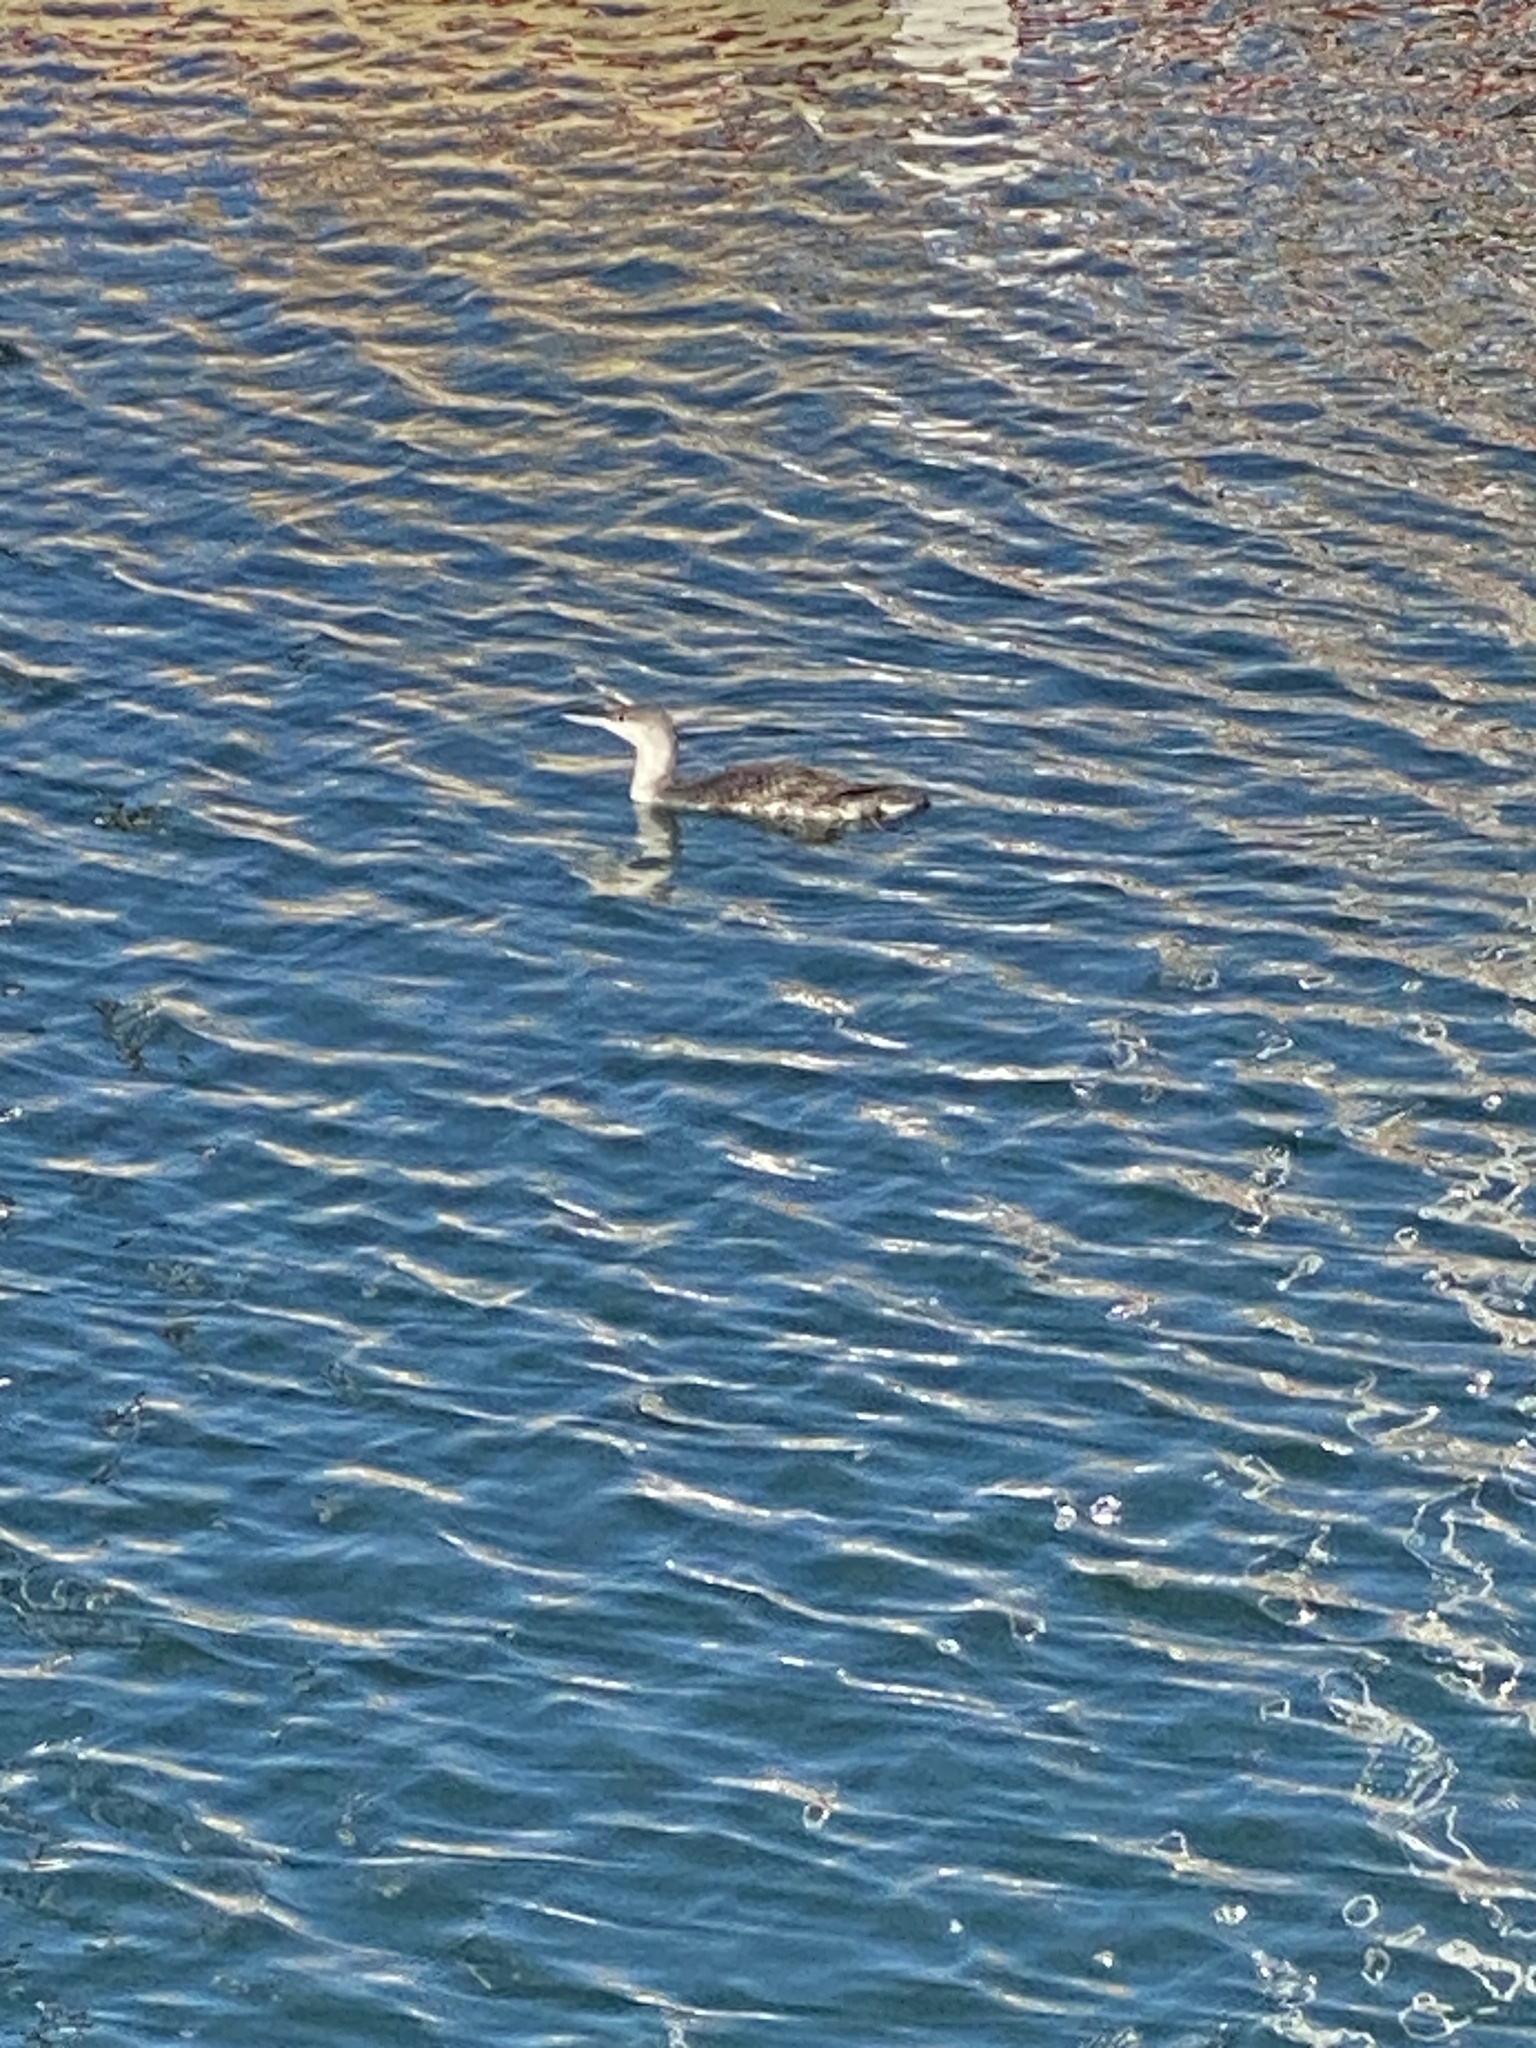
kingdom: Animalia
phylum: Chordata
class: Aves
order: Gaviiformes
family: Gaviidae
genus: Gavia
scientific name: Gavia stellata
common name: Red-throated loon
